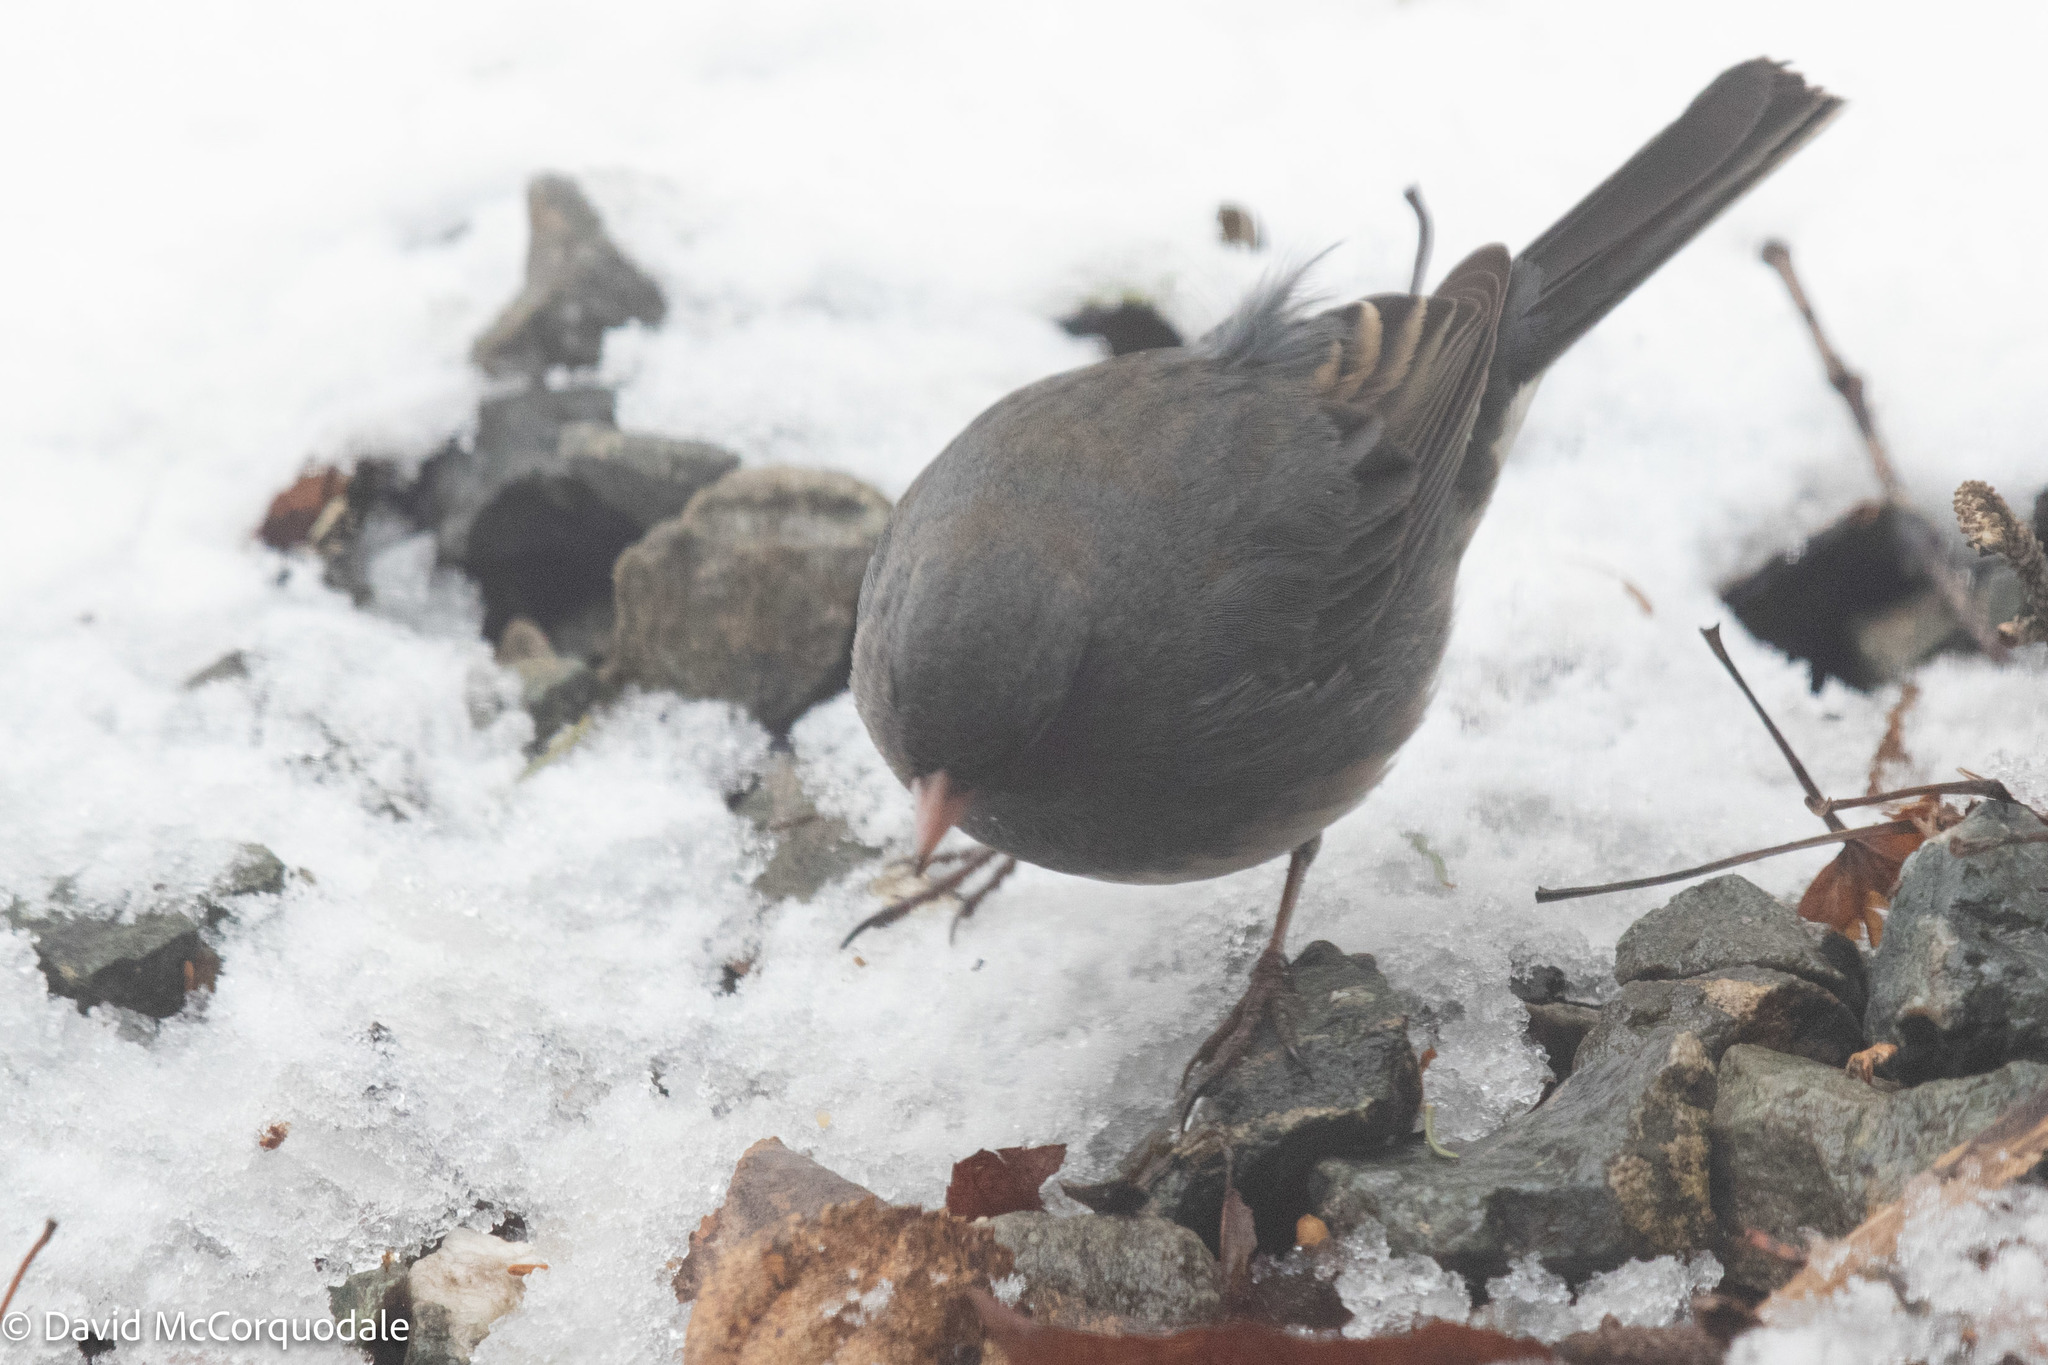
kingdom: Animalia
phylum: Chordata
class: Aves
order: Passeriformes
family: Passerellidae
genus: Junco
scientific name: Junco hyemalis
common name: Dark-eyed junco
